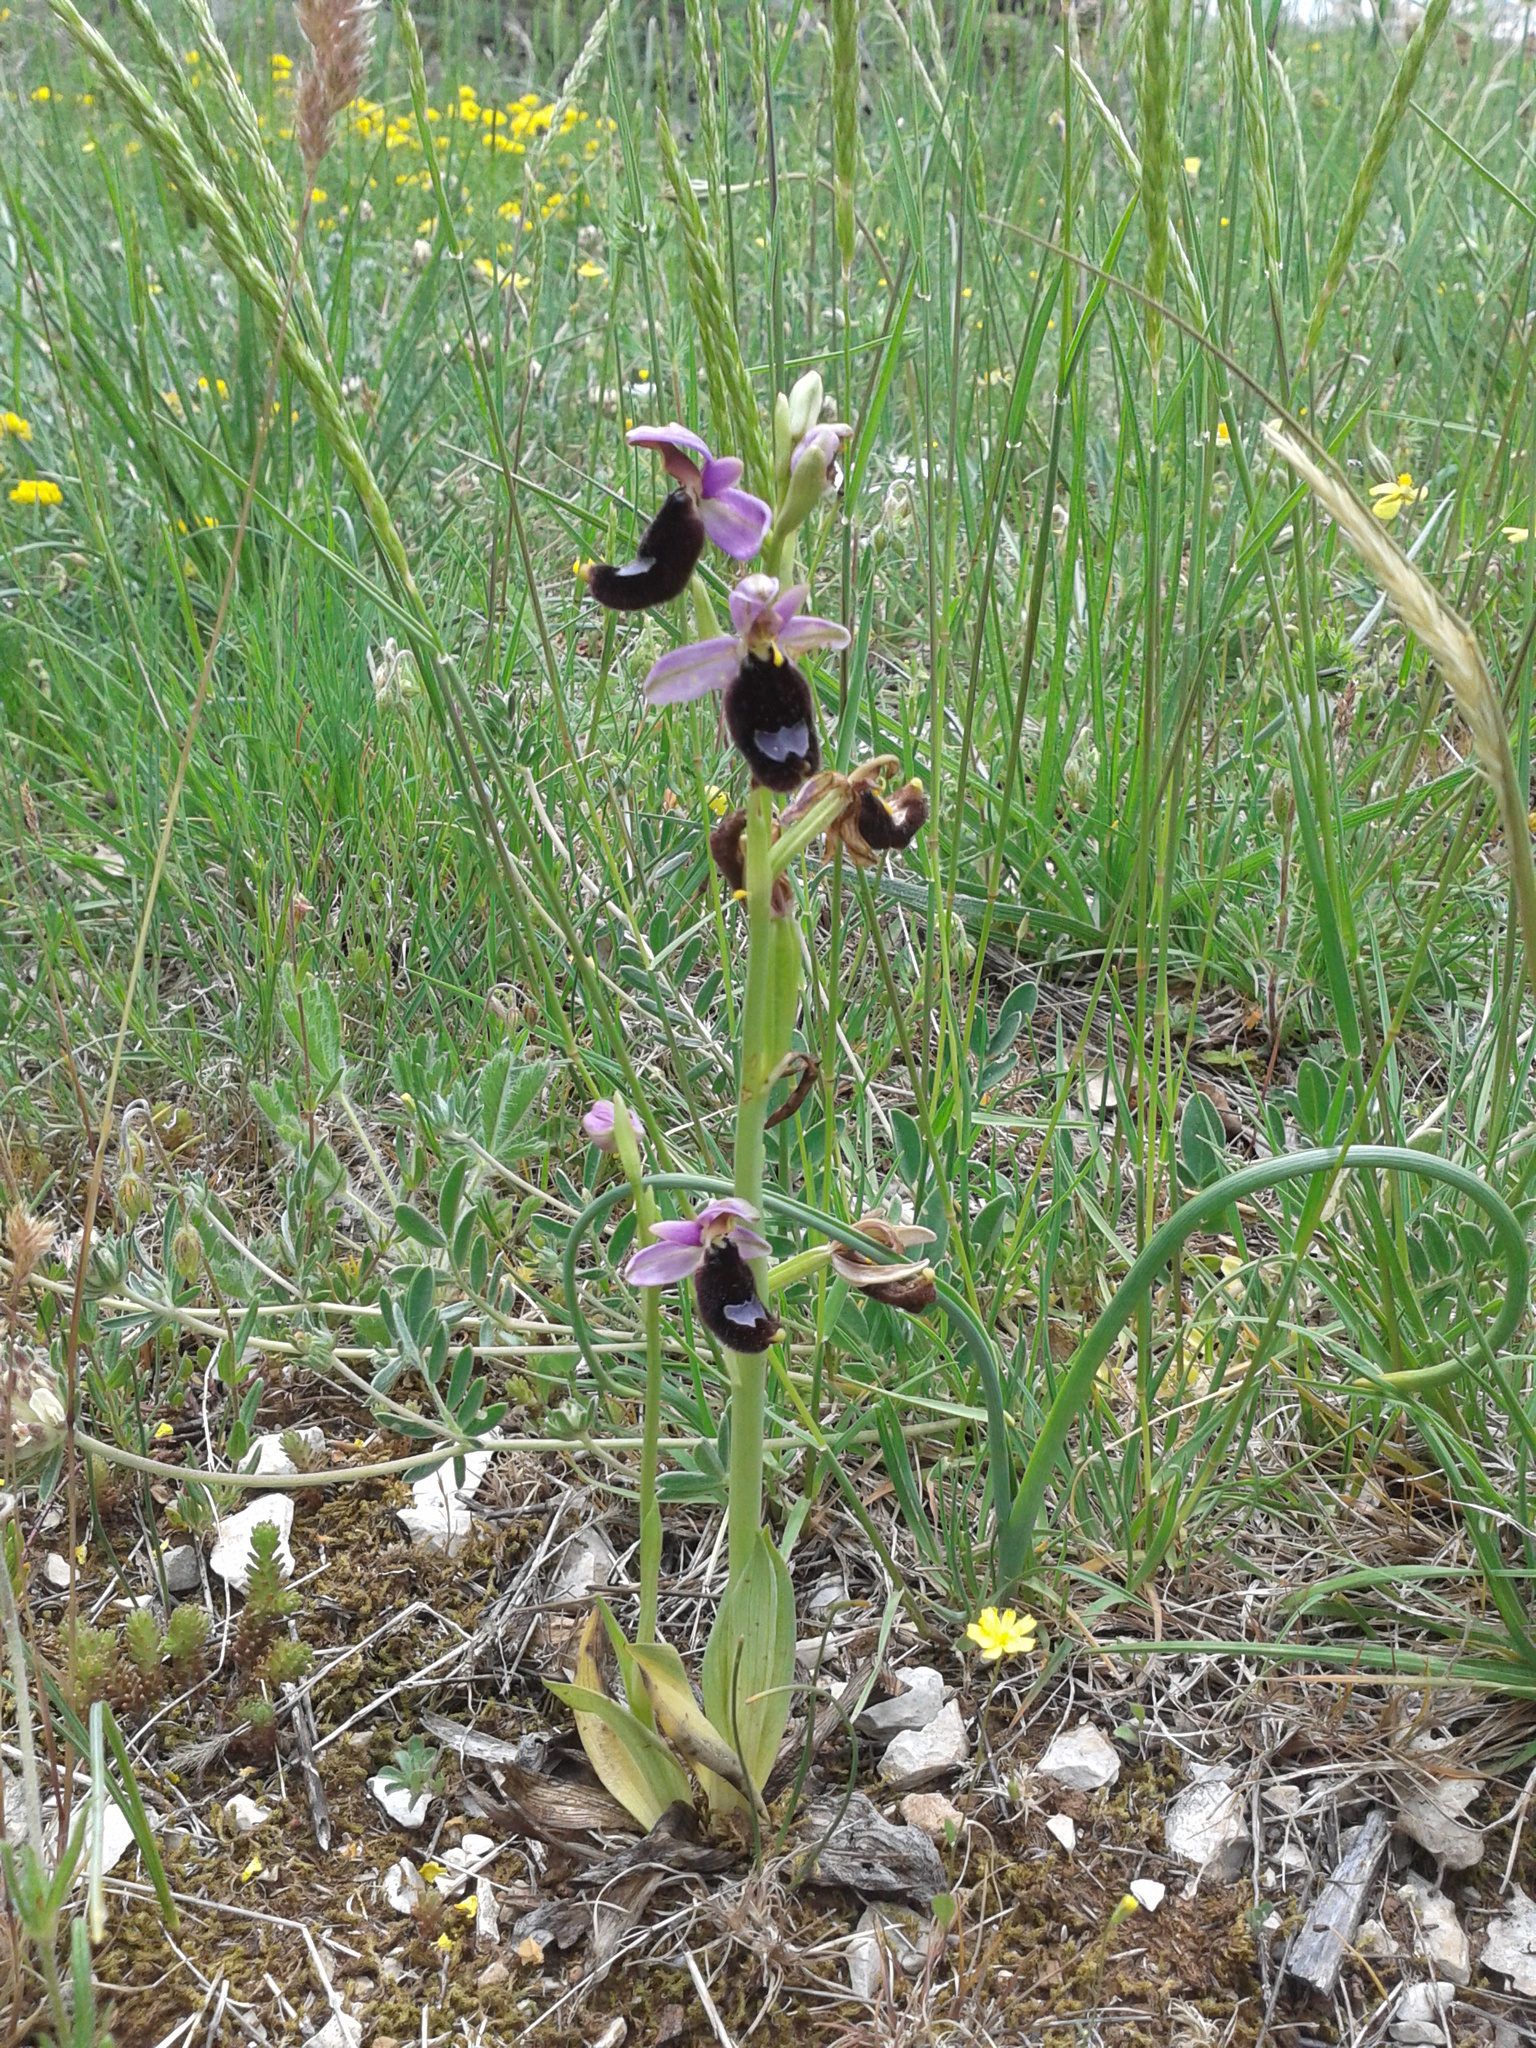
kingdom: Plantae
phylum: Tracheophyta
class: Liliopsida
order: Asparagales
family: Orchidaceae
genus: Ophrys
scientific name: Ophrys bertolonii
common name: Bertoloni's bee orchid
